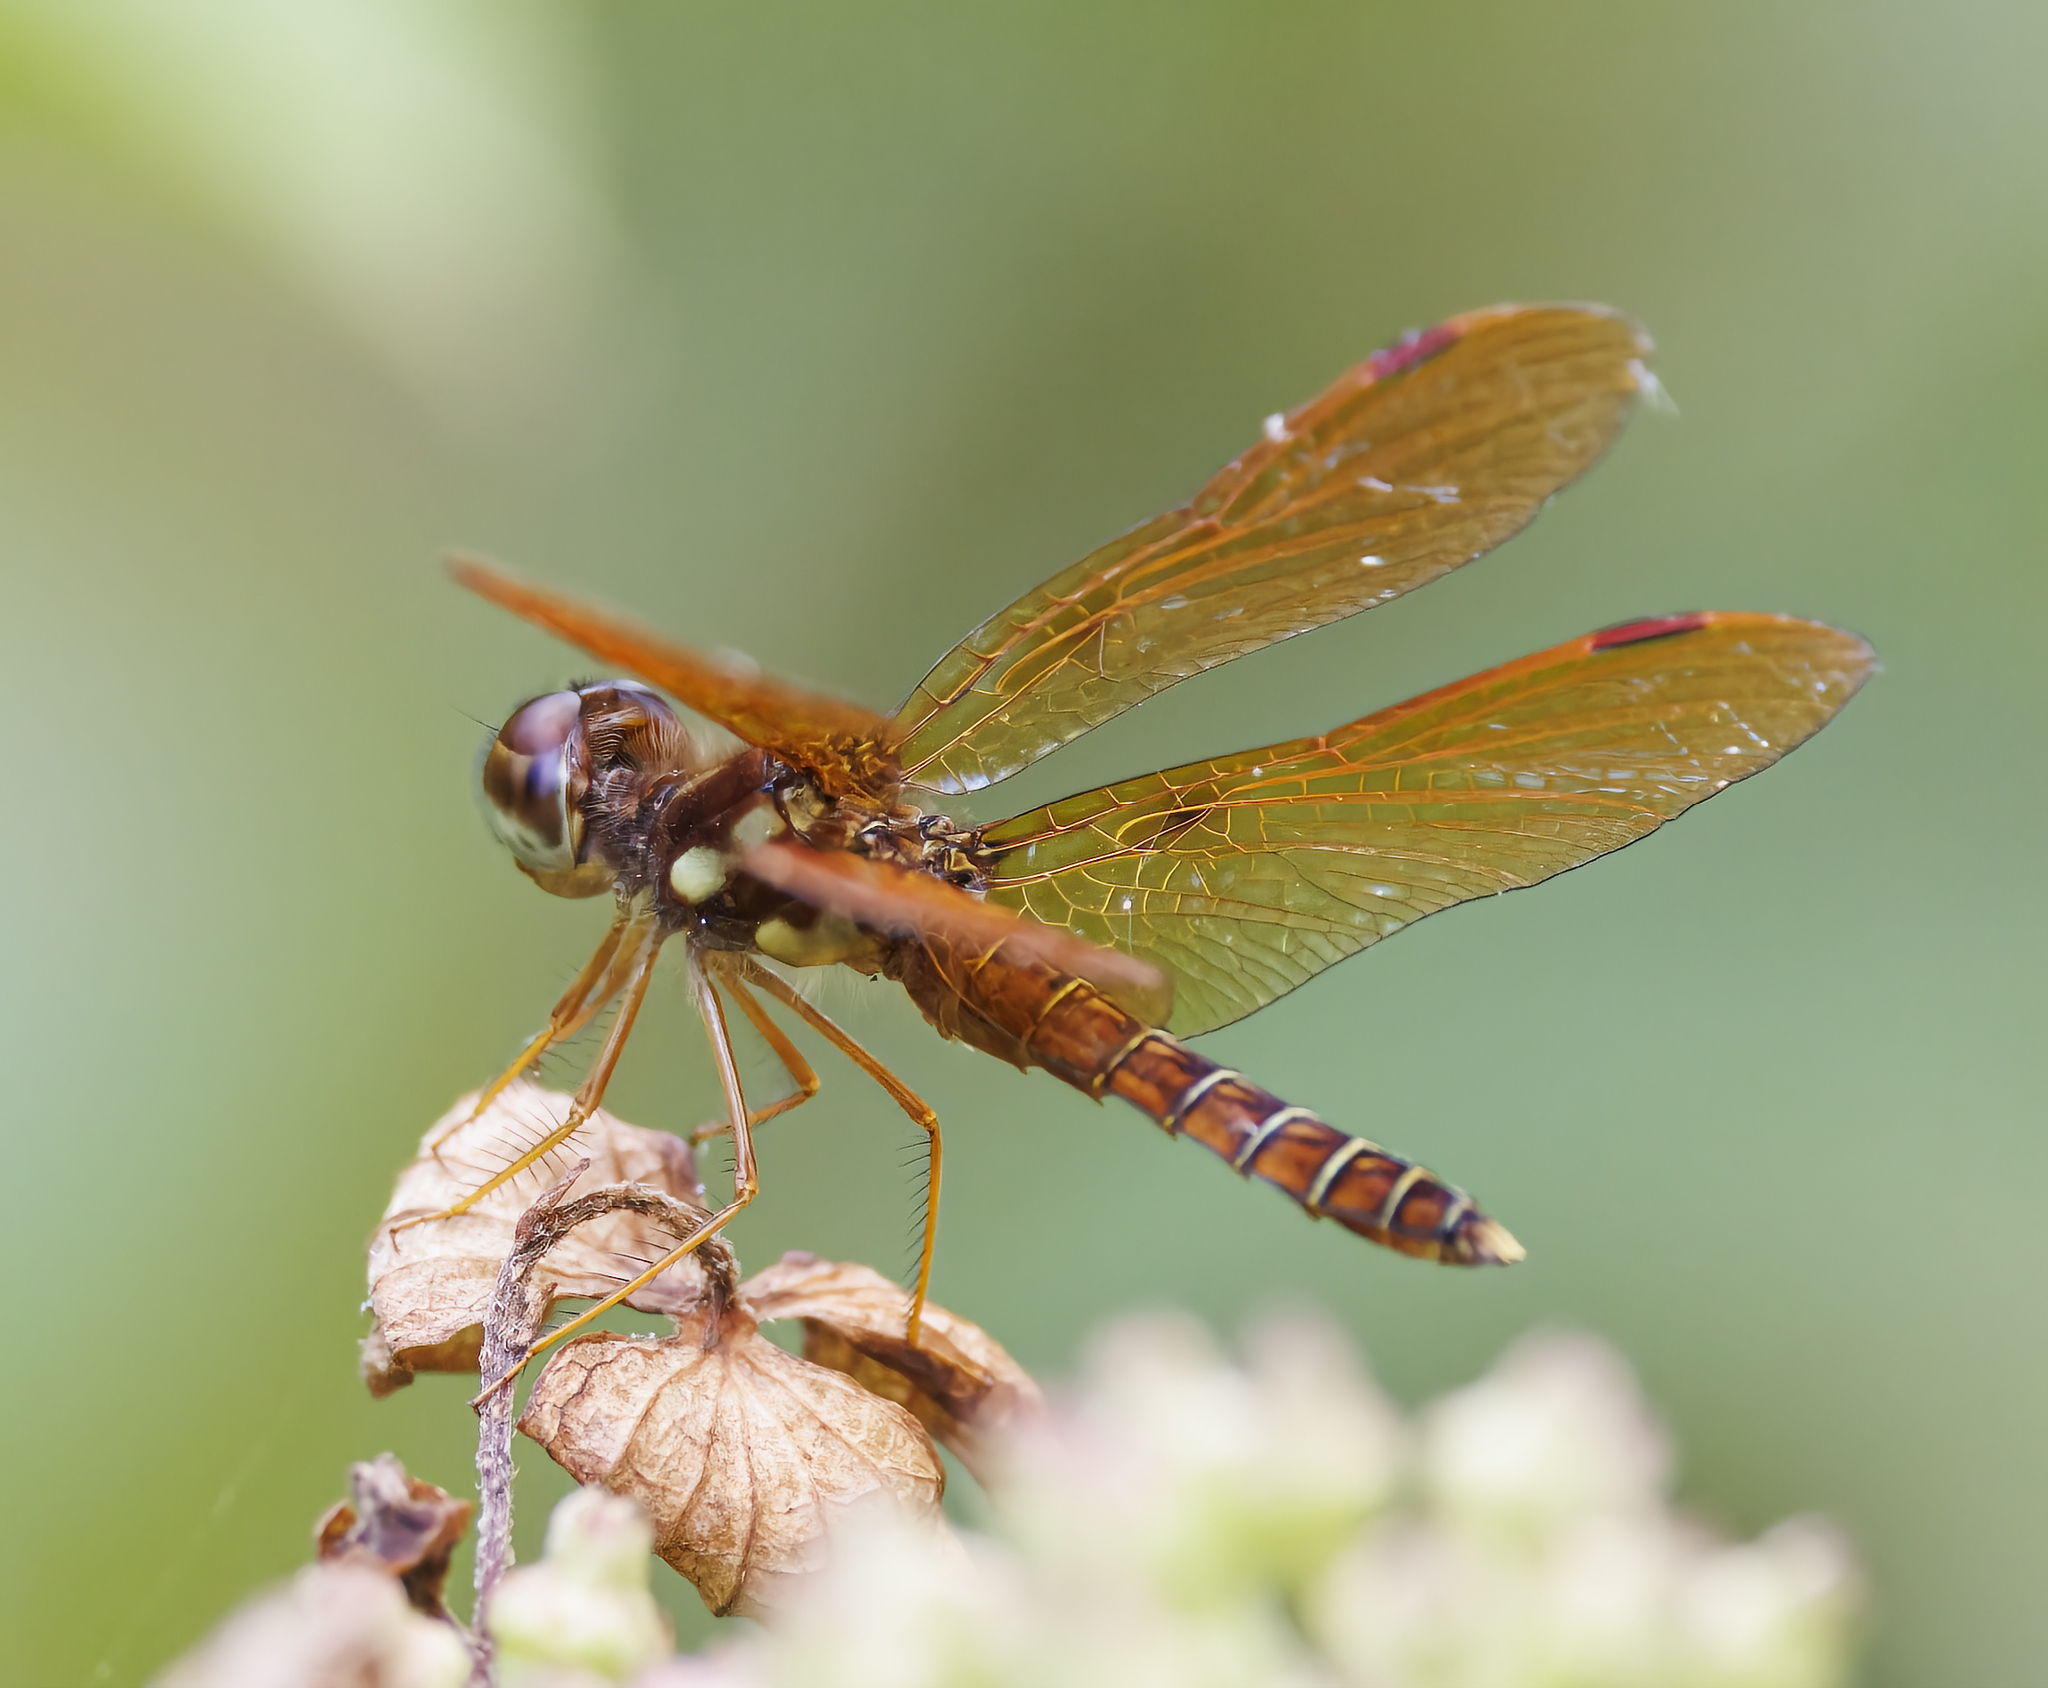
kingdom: Animalia
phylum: Arthropoda
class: Insecta
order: Odonata
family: Libellulidae
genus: Perithemis
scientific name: Perithemis tenera
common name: Eastern amberwing
